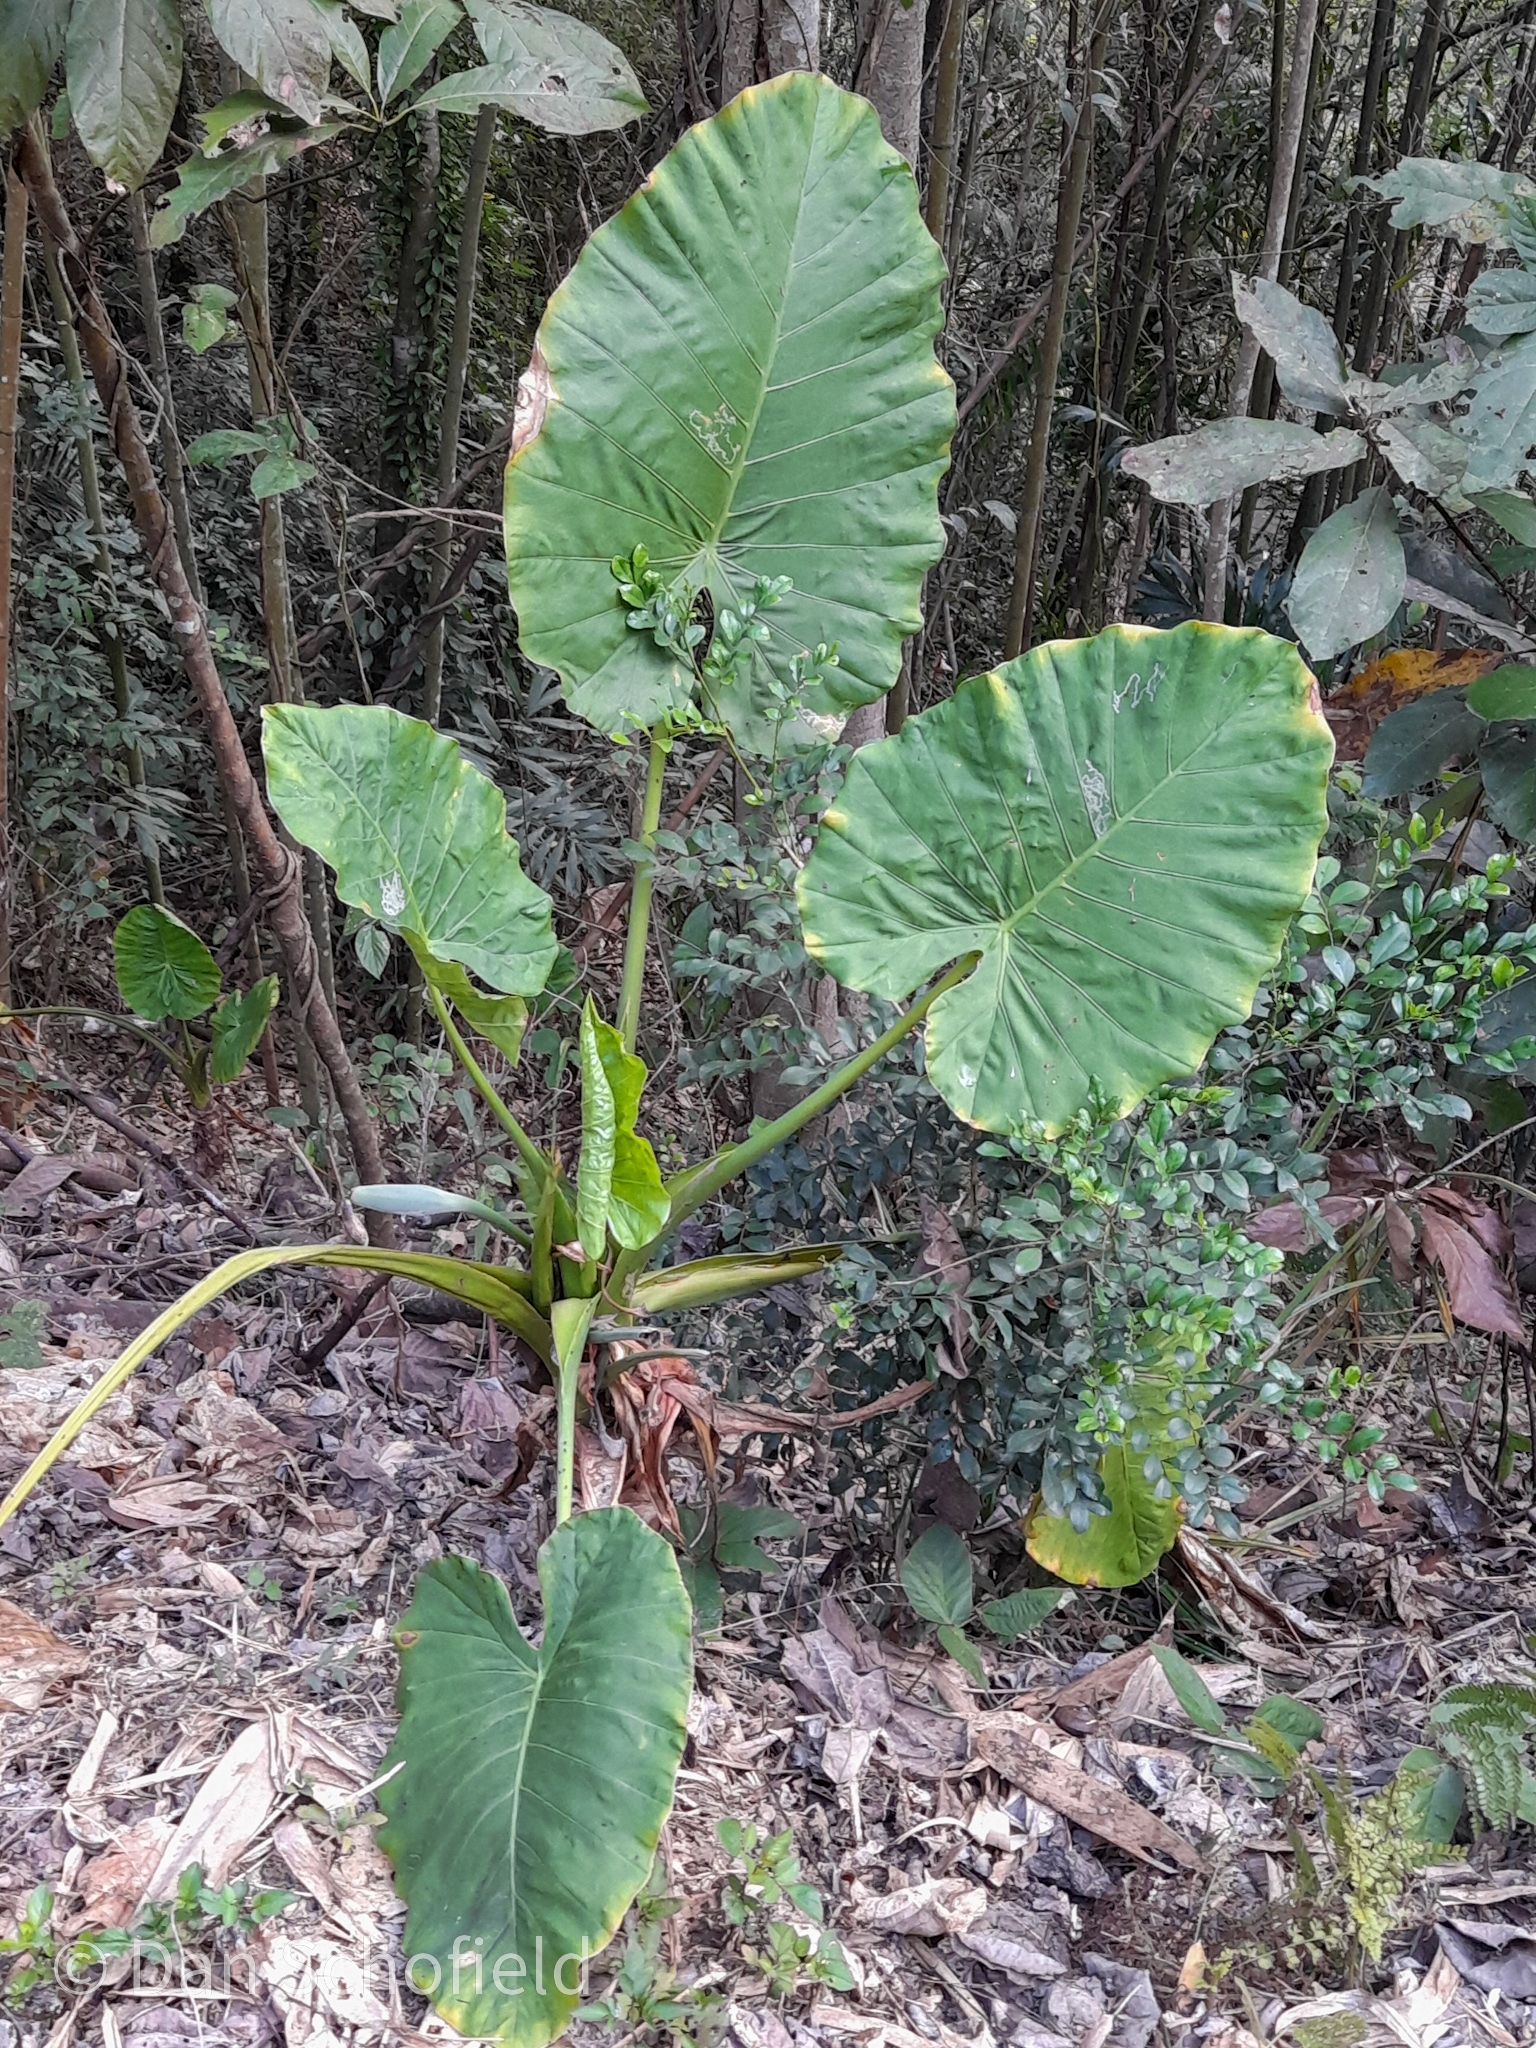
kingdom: Plantae
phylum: Tracheophyta
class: Liliopsida
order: Alismatales
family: Araceae
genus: Alocasia
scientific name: Alocasia odora
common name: Asian taro
